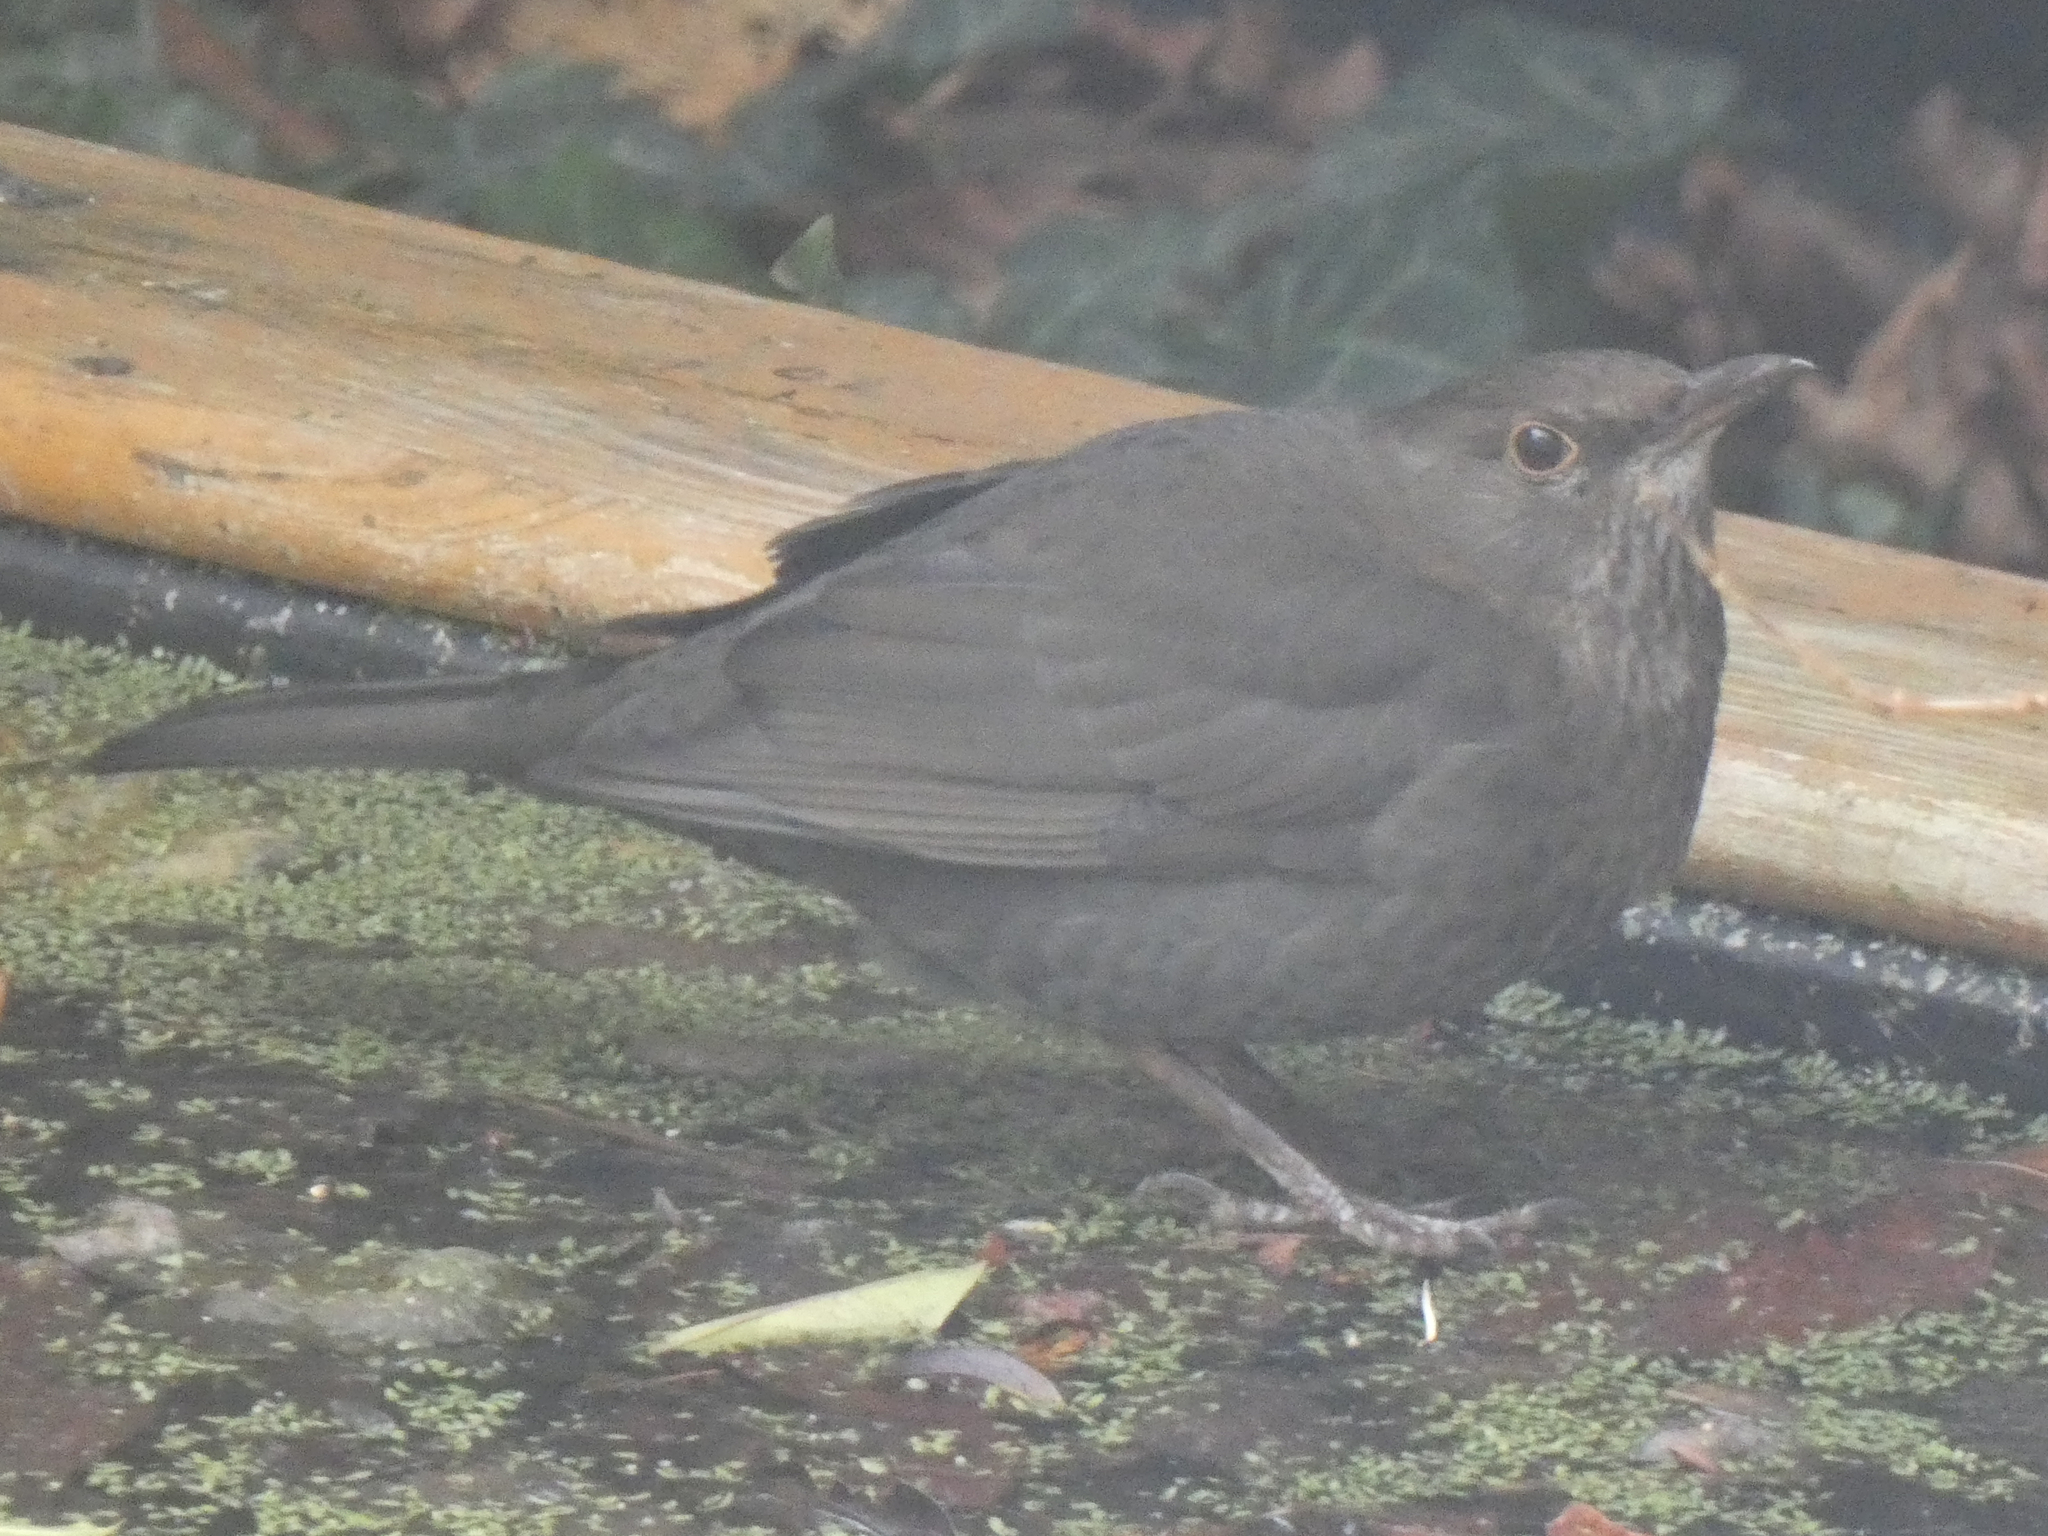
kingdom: Animalia
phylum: Chordata
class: Aves
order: Passeriformes
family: Turdidae
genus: Turdus
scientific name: Turdus merula
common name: Common blackbird
